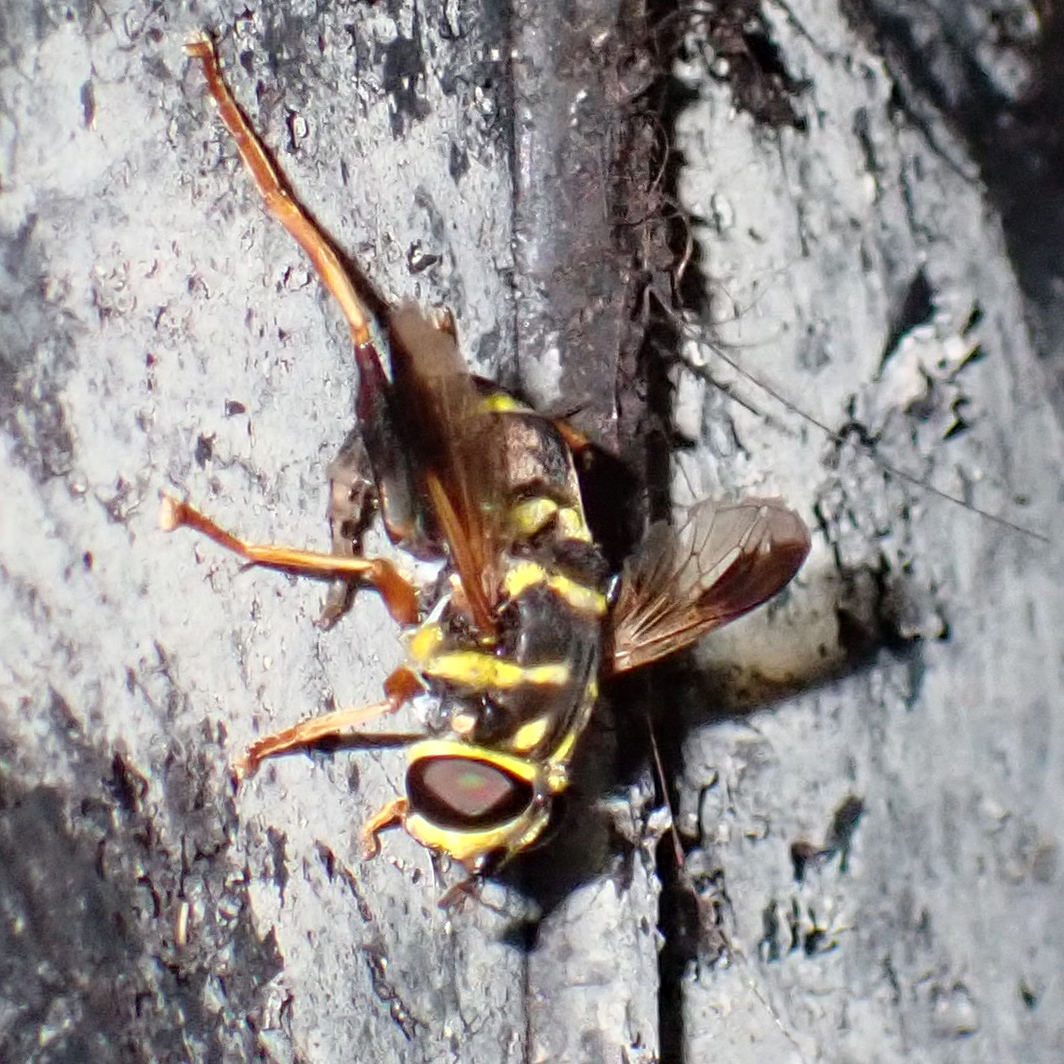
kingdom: Animalia
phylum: Arthropoda
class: Insecta
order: Diptera
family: Syrphidae
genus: Meromacrus
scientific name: Meromacrus acutus
